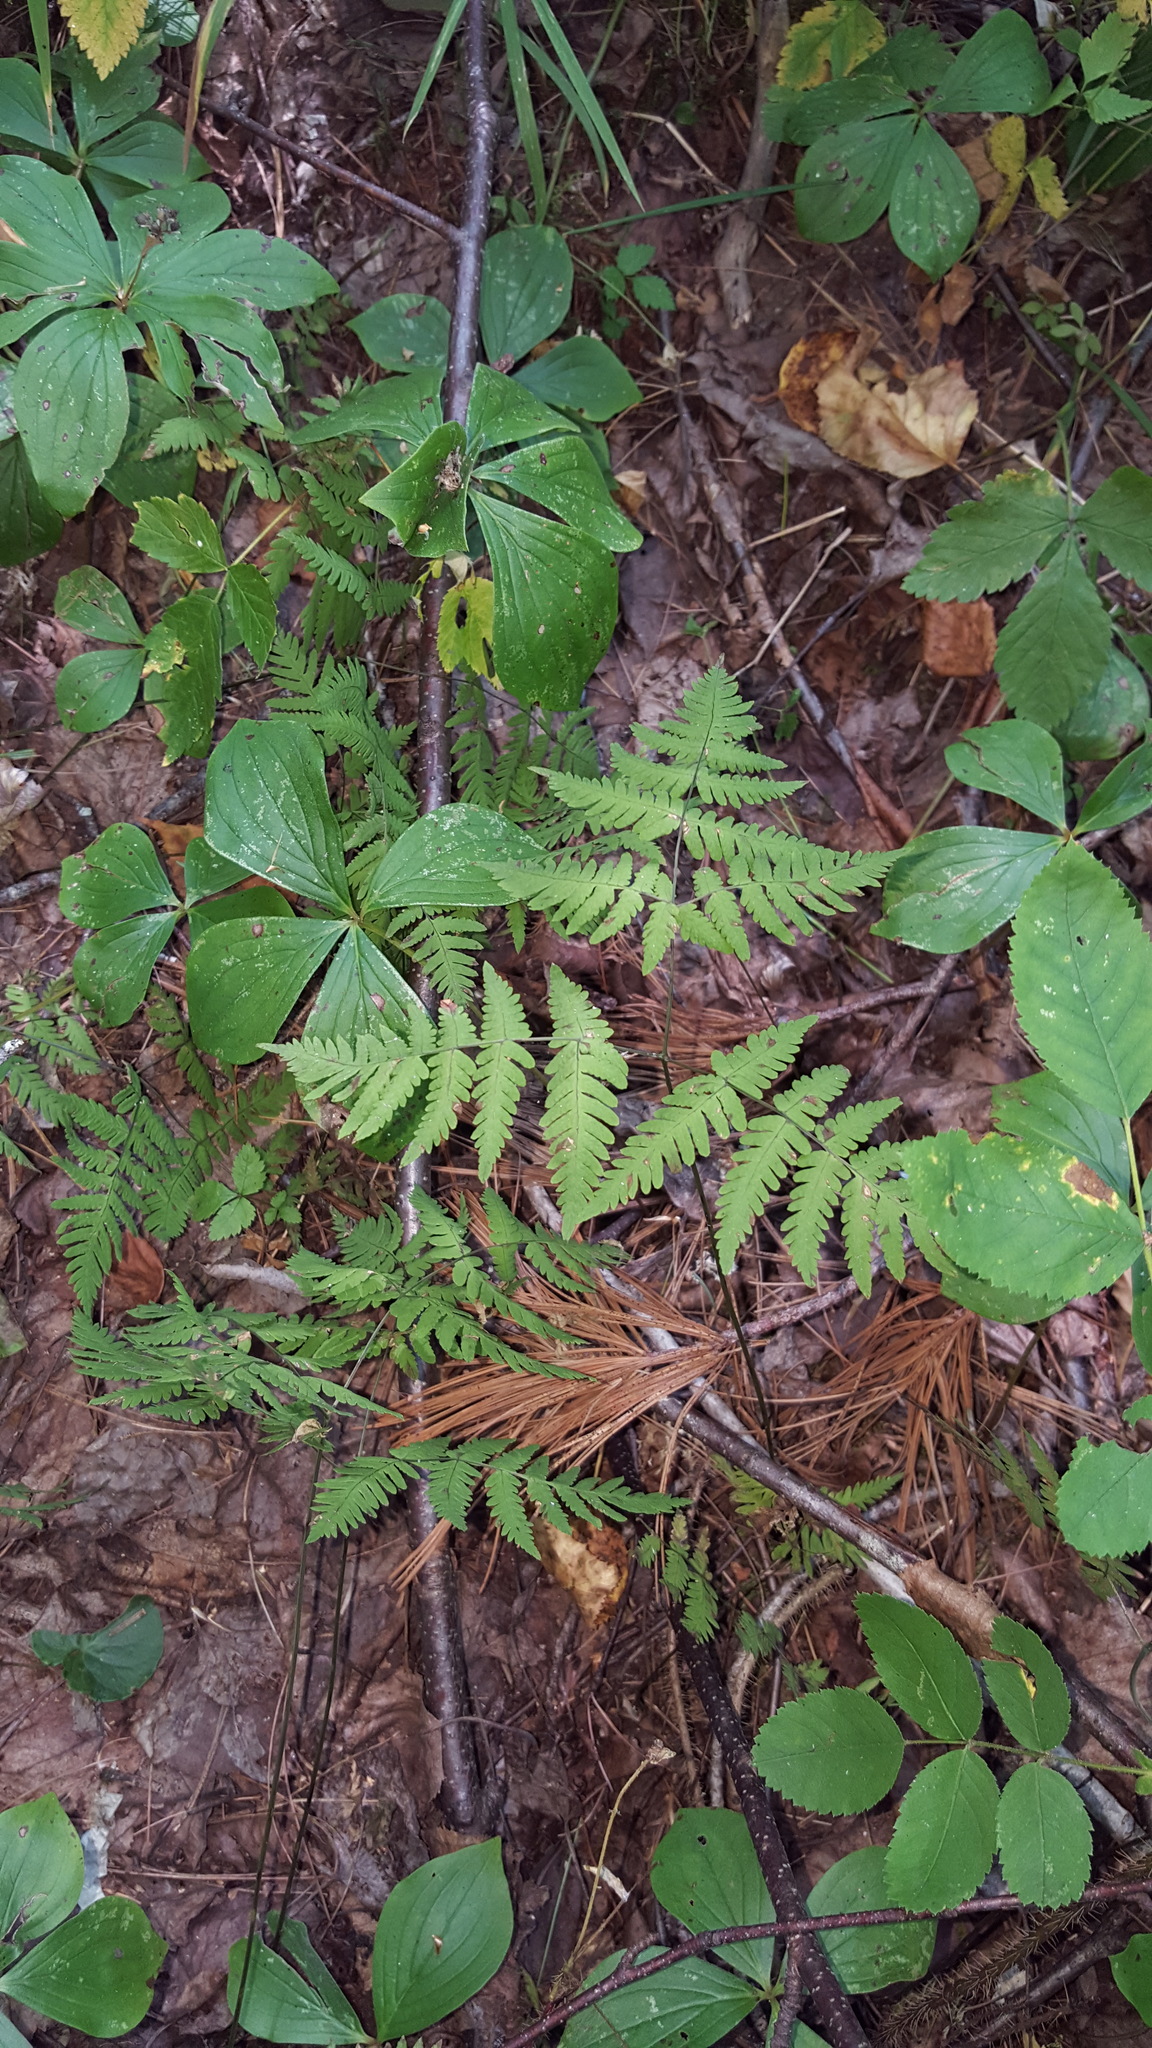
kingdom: Plantae
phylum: Tracheophyta
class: Polypodiopsida
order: Polypodiales
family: Cystopteridaceae
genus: Gymnocarpium
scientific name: Gymnocarpium dryopteris
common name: Oak fern
